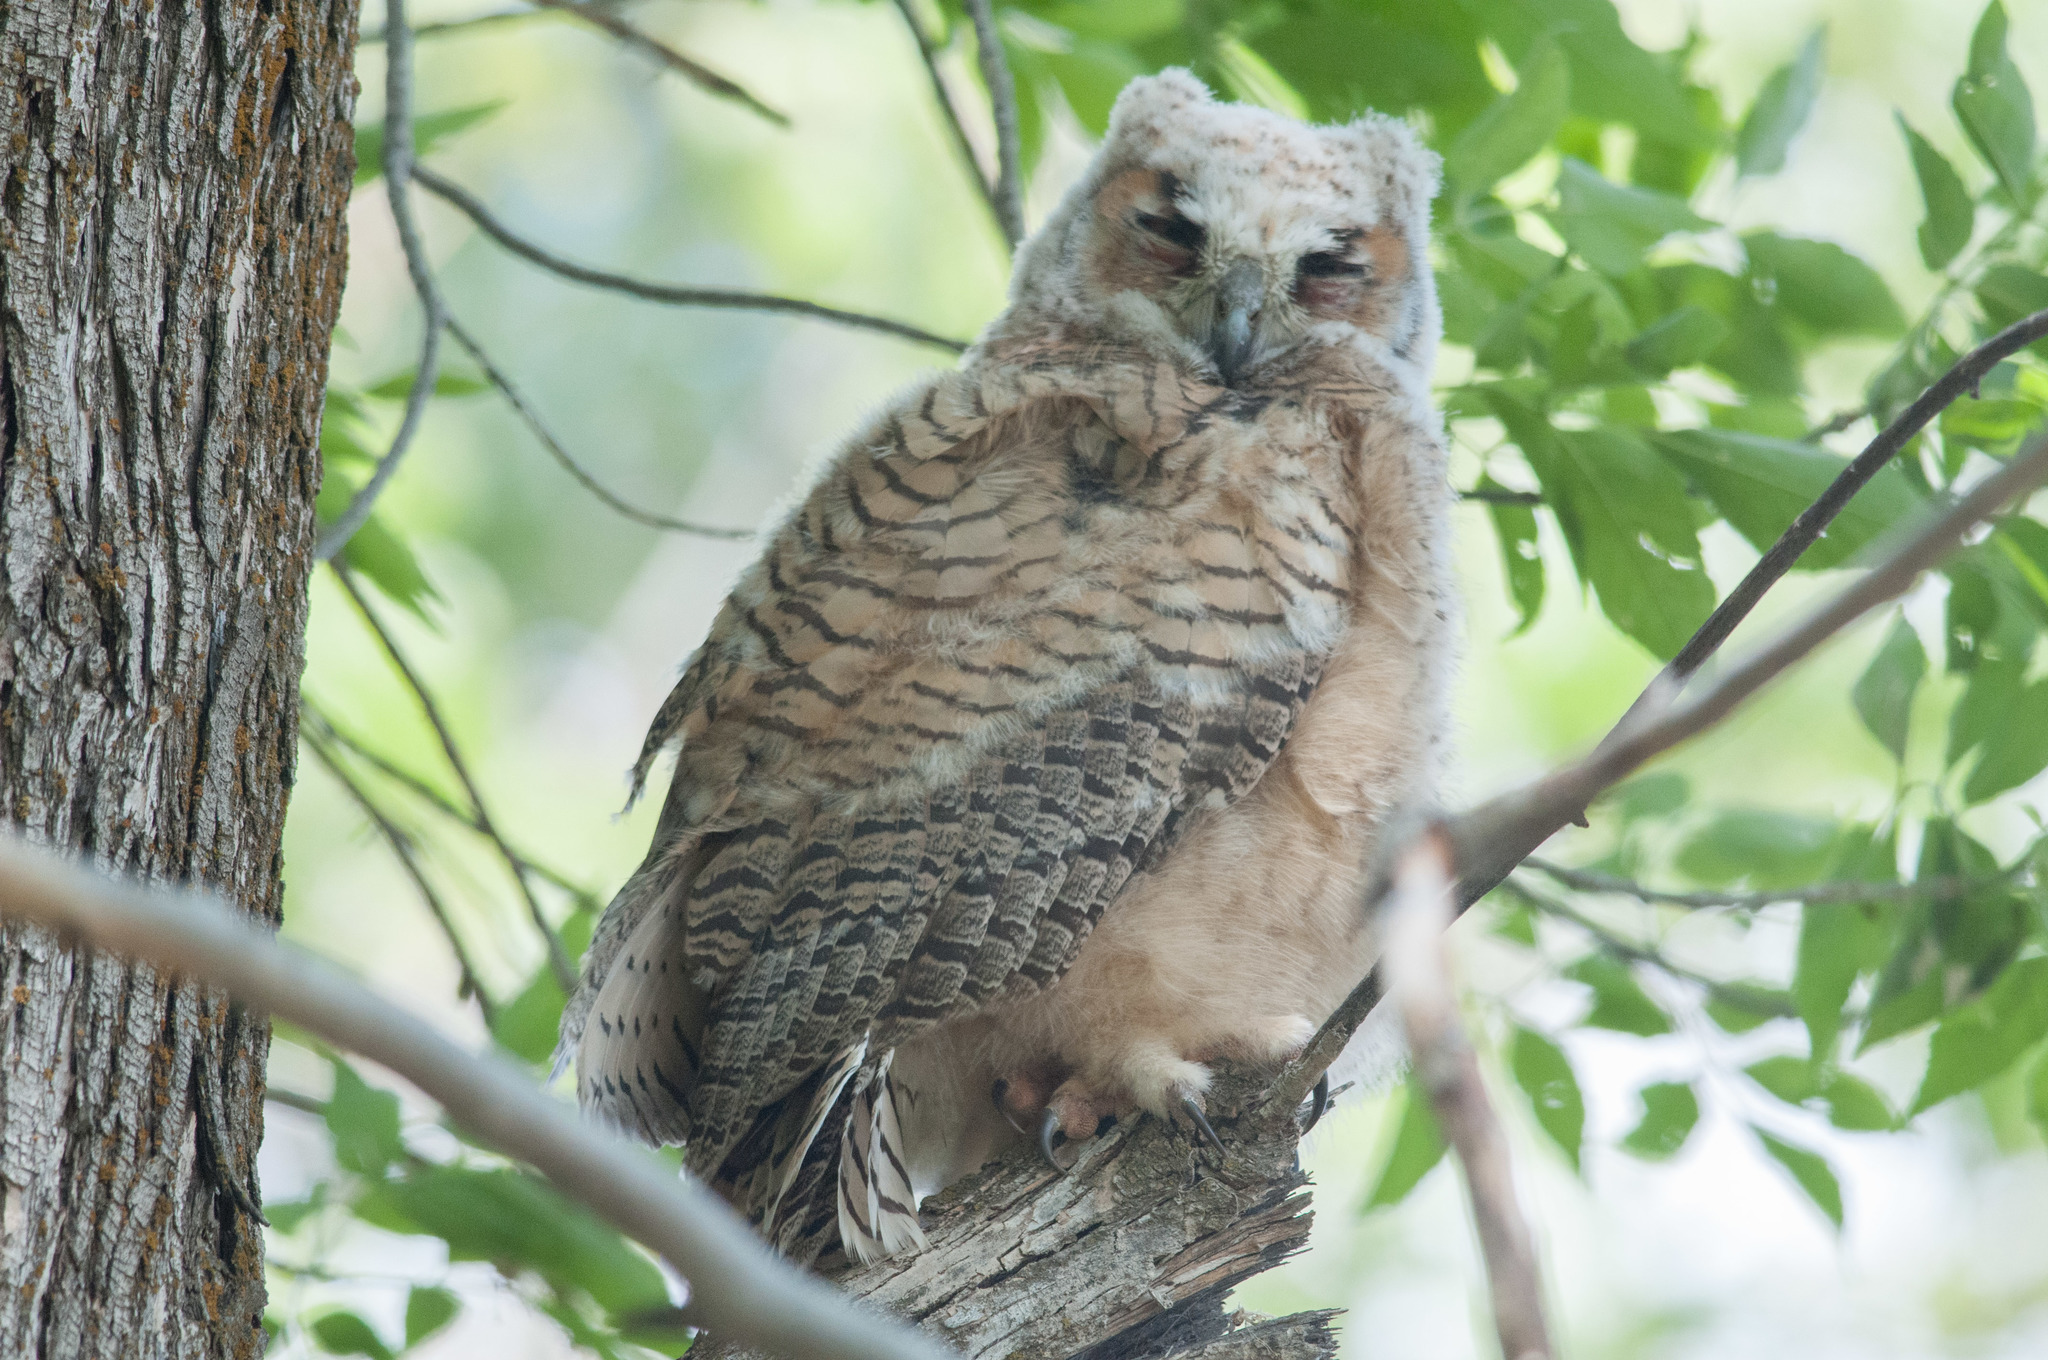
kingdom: Animalia
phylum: Chordata
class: Aves
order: Strigiformes
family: Strigidae
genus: Bubo
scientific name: Bubo virginianus
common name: Great horned owl
